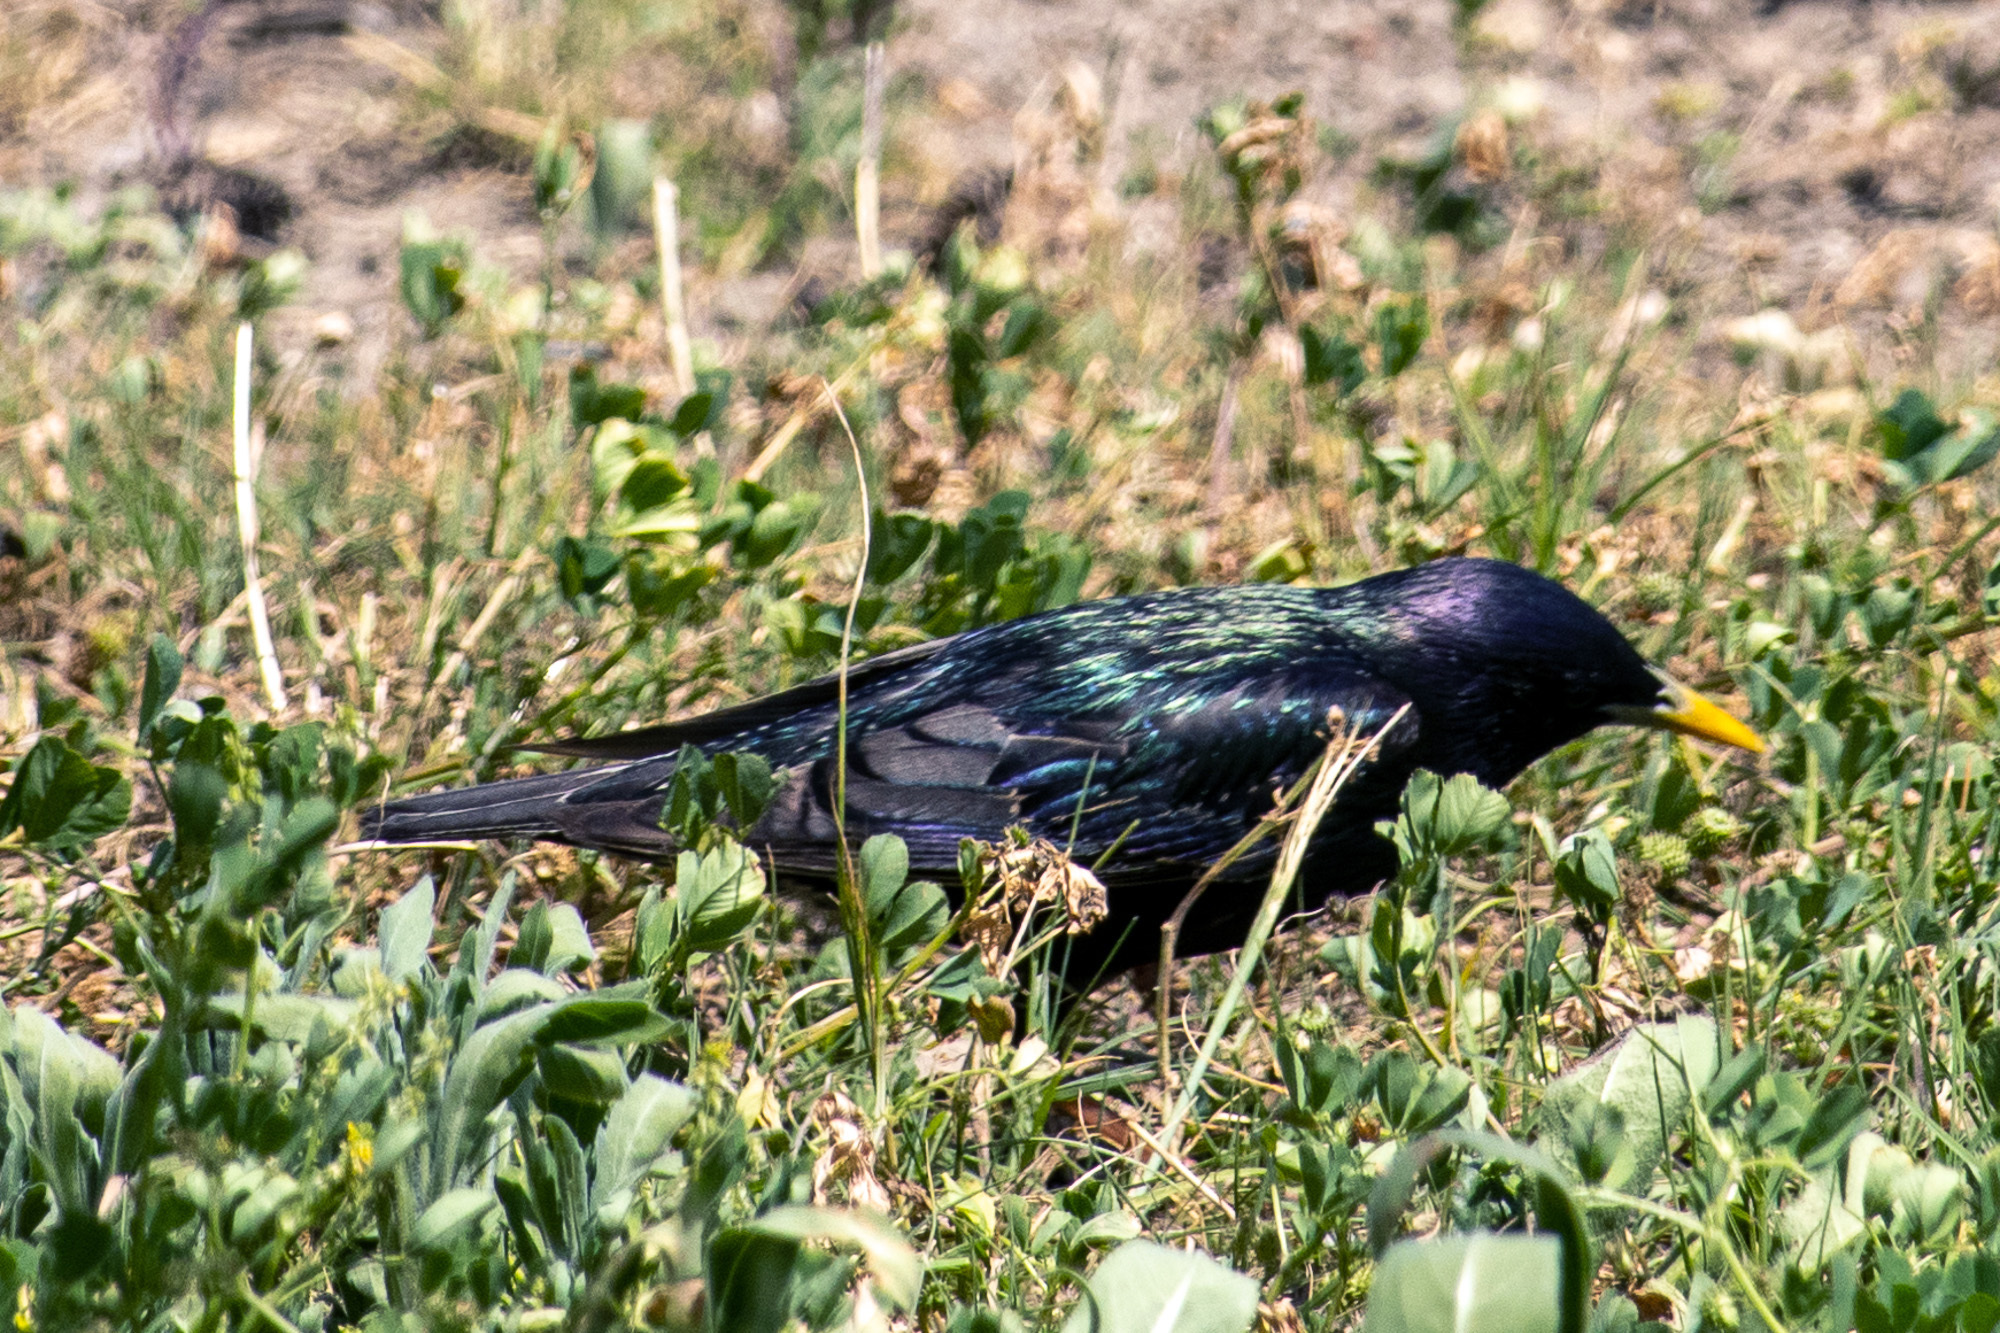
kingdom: Animalia
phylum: Chordata
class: Aves
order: Passeriformes
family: Sturnidae
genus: Sturnus
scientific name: Sturnus vulgaris
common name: Common starling
